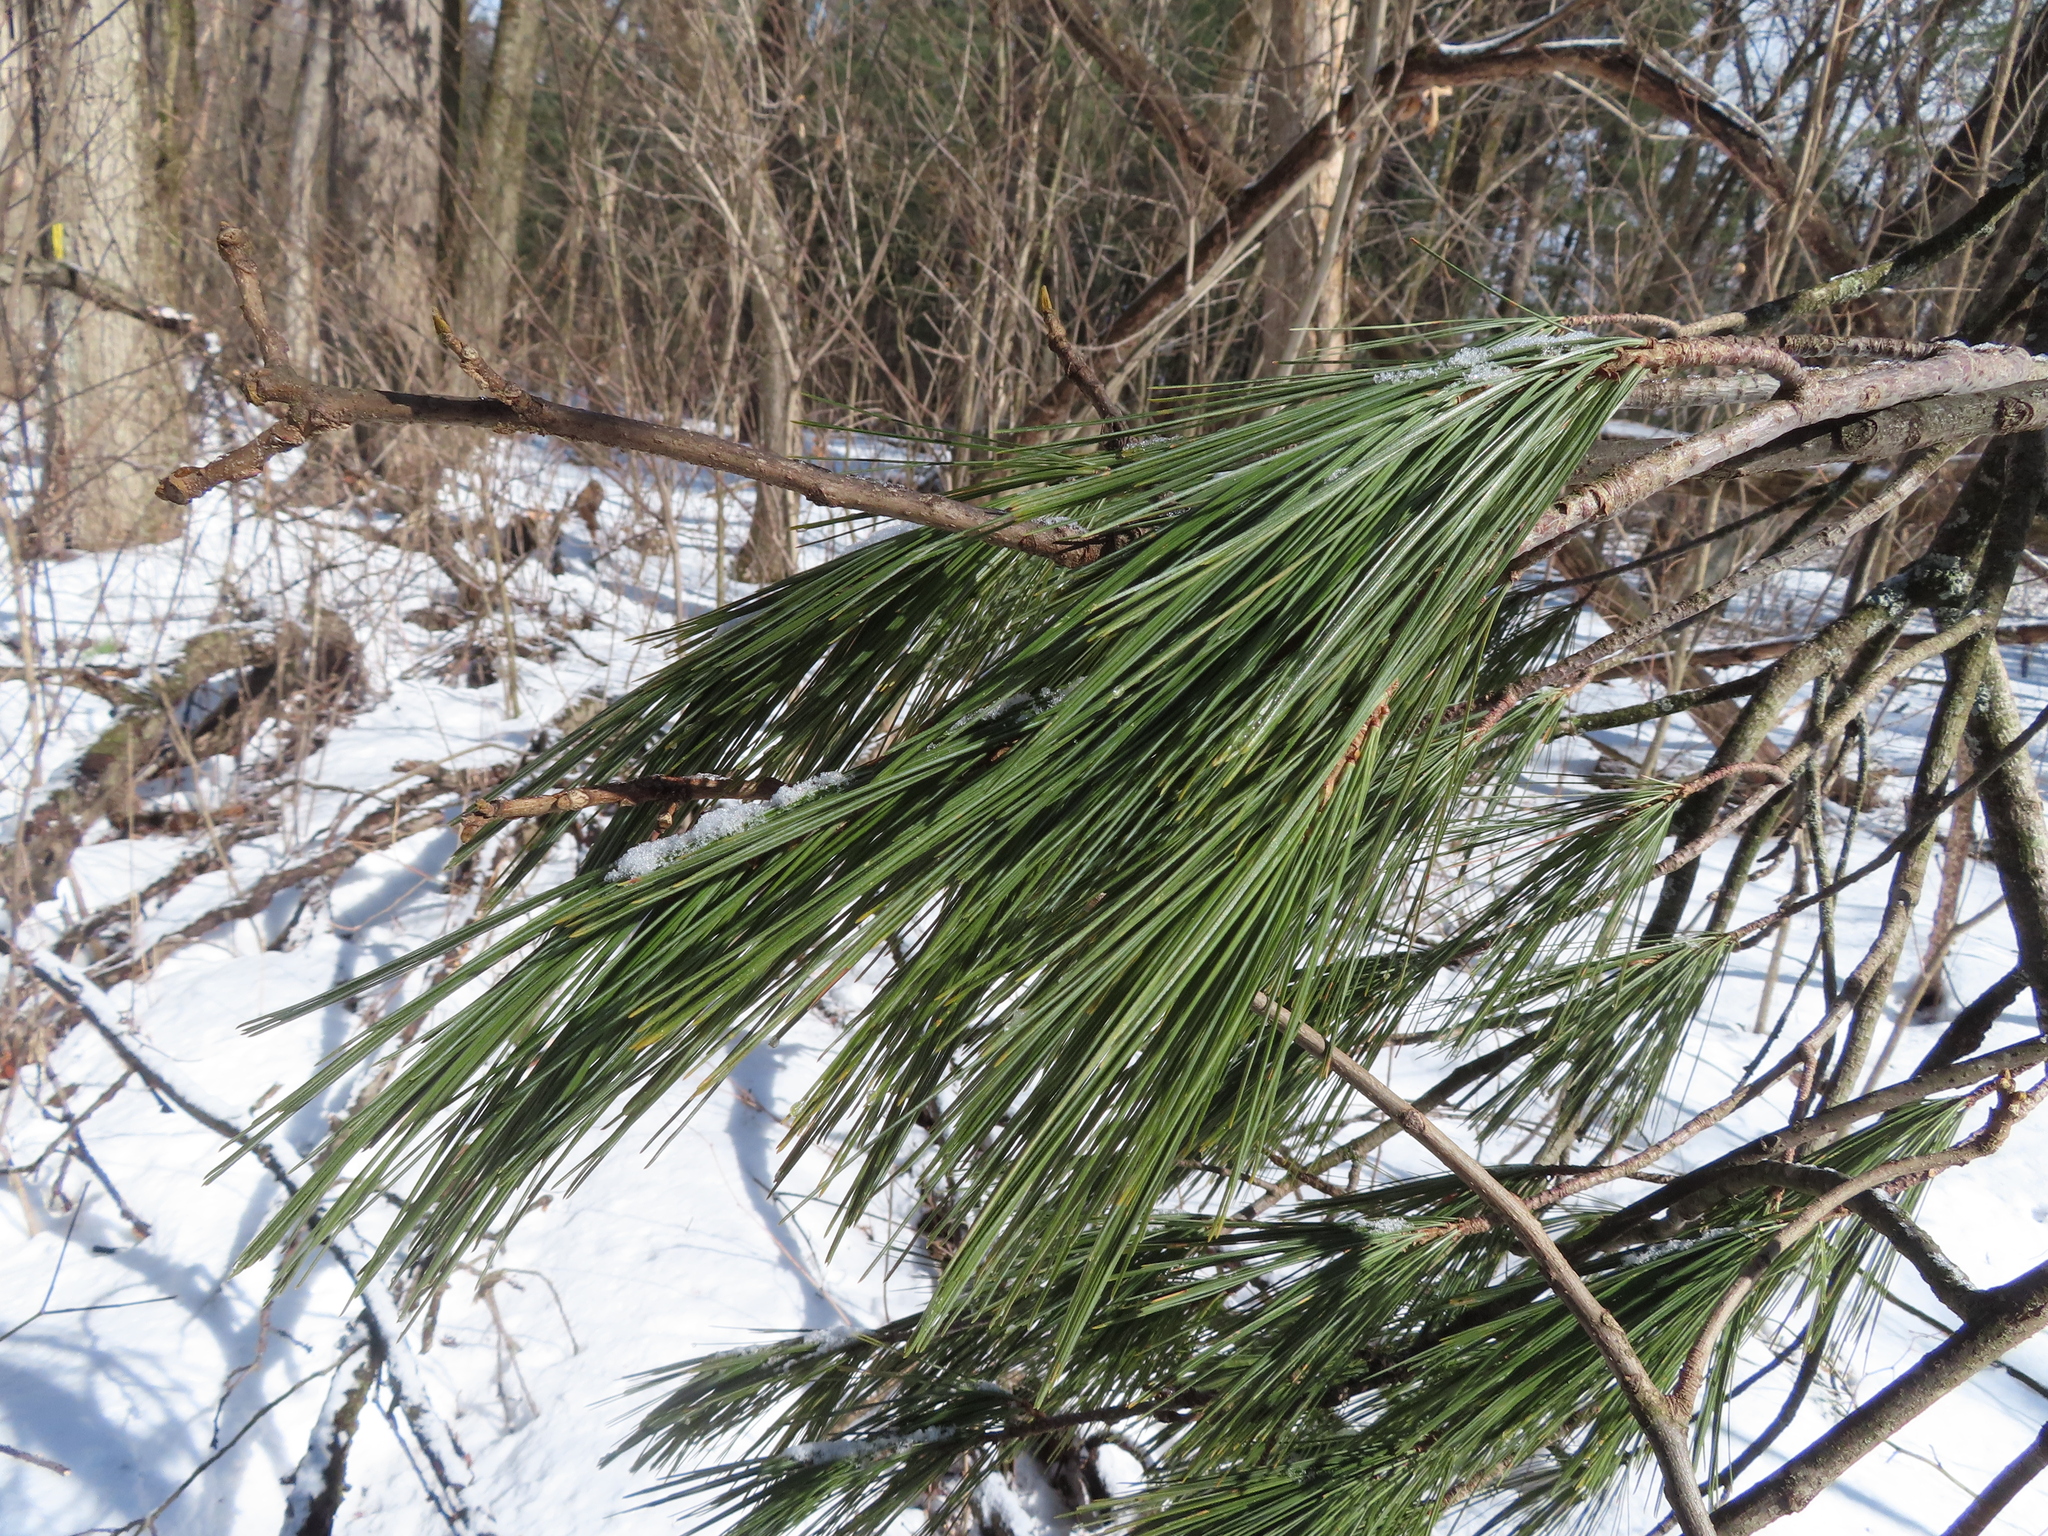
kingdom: Plantae
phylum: Tracheophyta
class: Pinopsida
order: Pinales
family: Pinaceae
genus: Pinus
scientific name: Pinus strobus
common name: Weymouth pine
